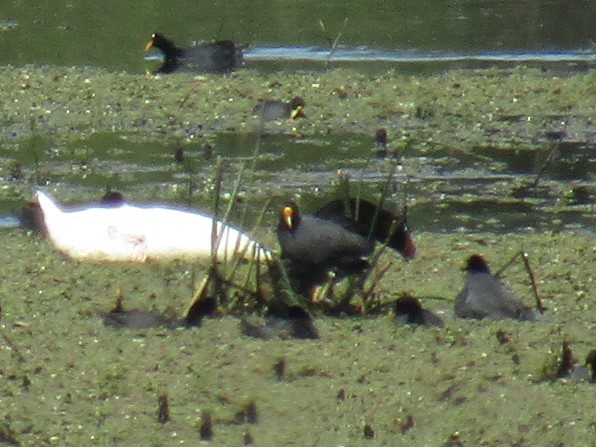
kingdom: Animalia
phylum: Chordata
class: Aves
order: Gruiformes
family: Rallidae
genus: Fulica
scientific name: Fulica leucoptera
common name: White-winged coot
